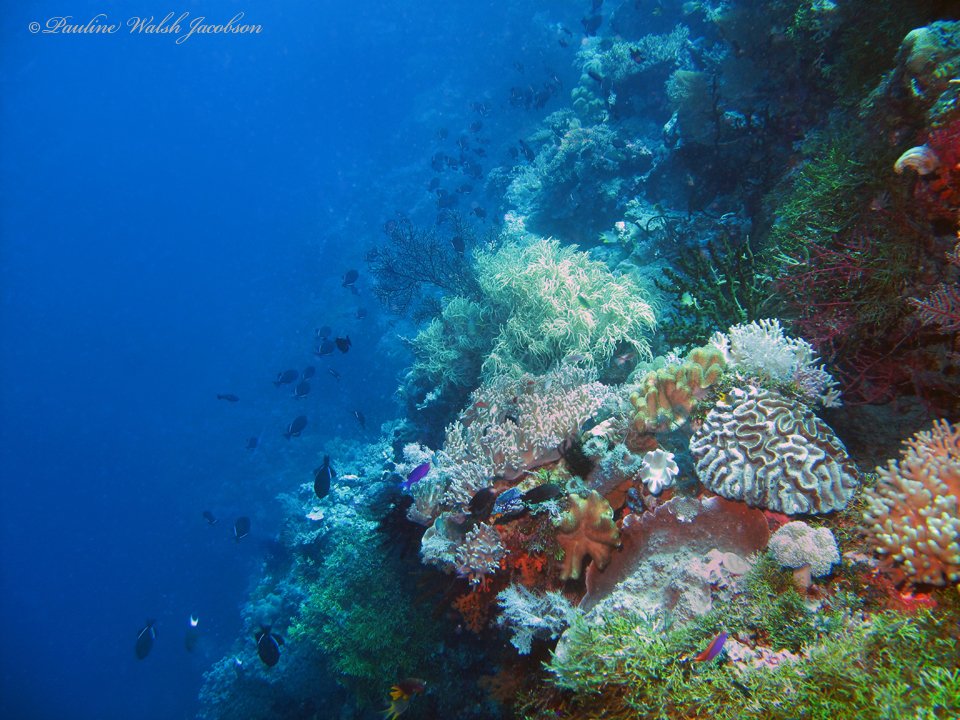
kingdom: Animalia
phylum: Chordata
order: Tetraodontiformes
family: Balistidae
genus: Melichthys
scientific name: Melichthys indicus
